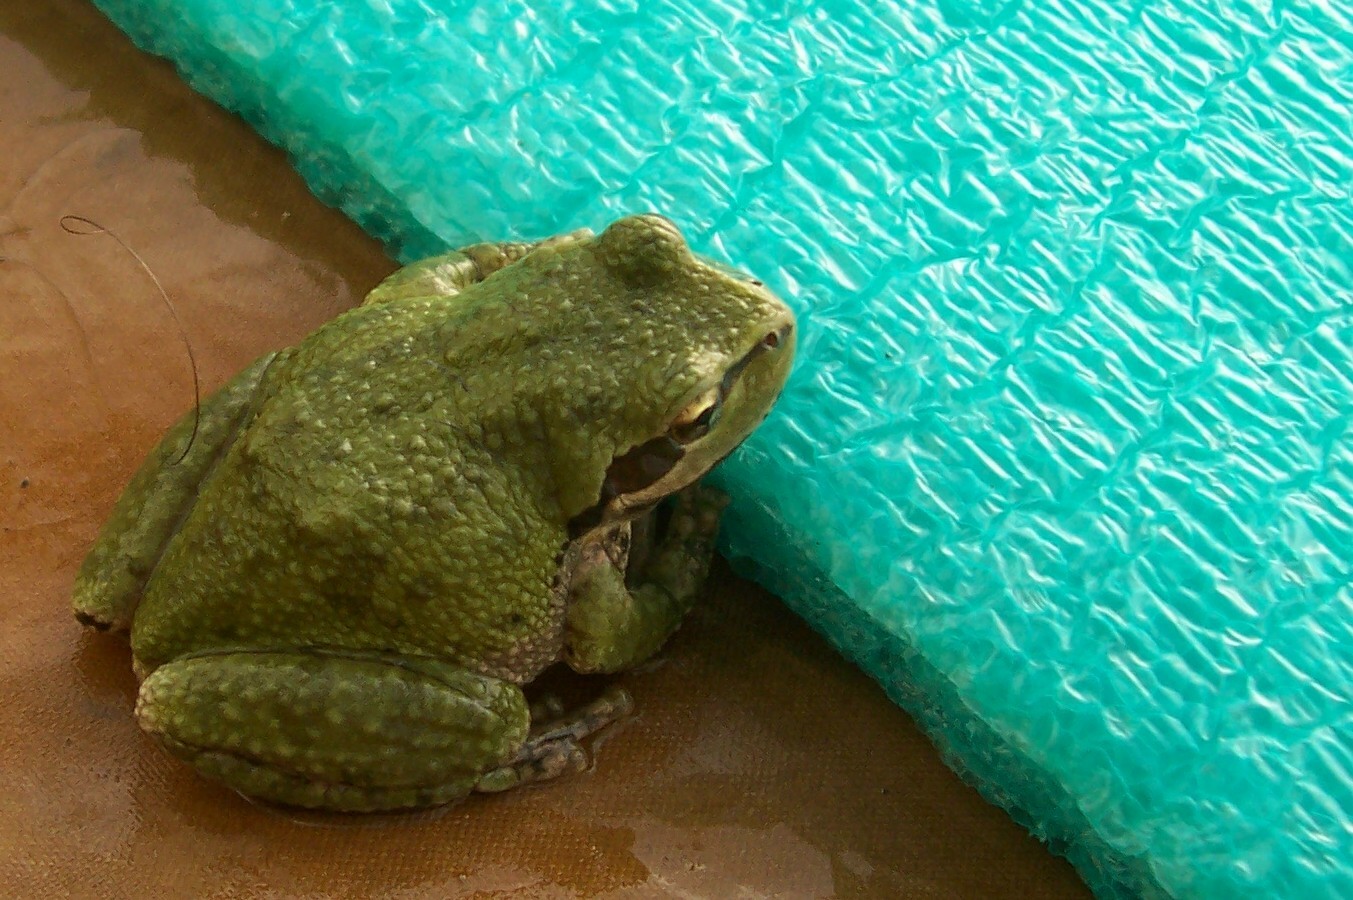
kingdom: Animalia
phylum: Chordata
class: Amphibia
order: Anura
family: Hylidae
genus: Pseudacris
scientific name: Pseudacris regilla
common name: Pacific chorus frog
